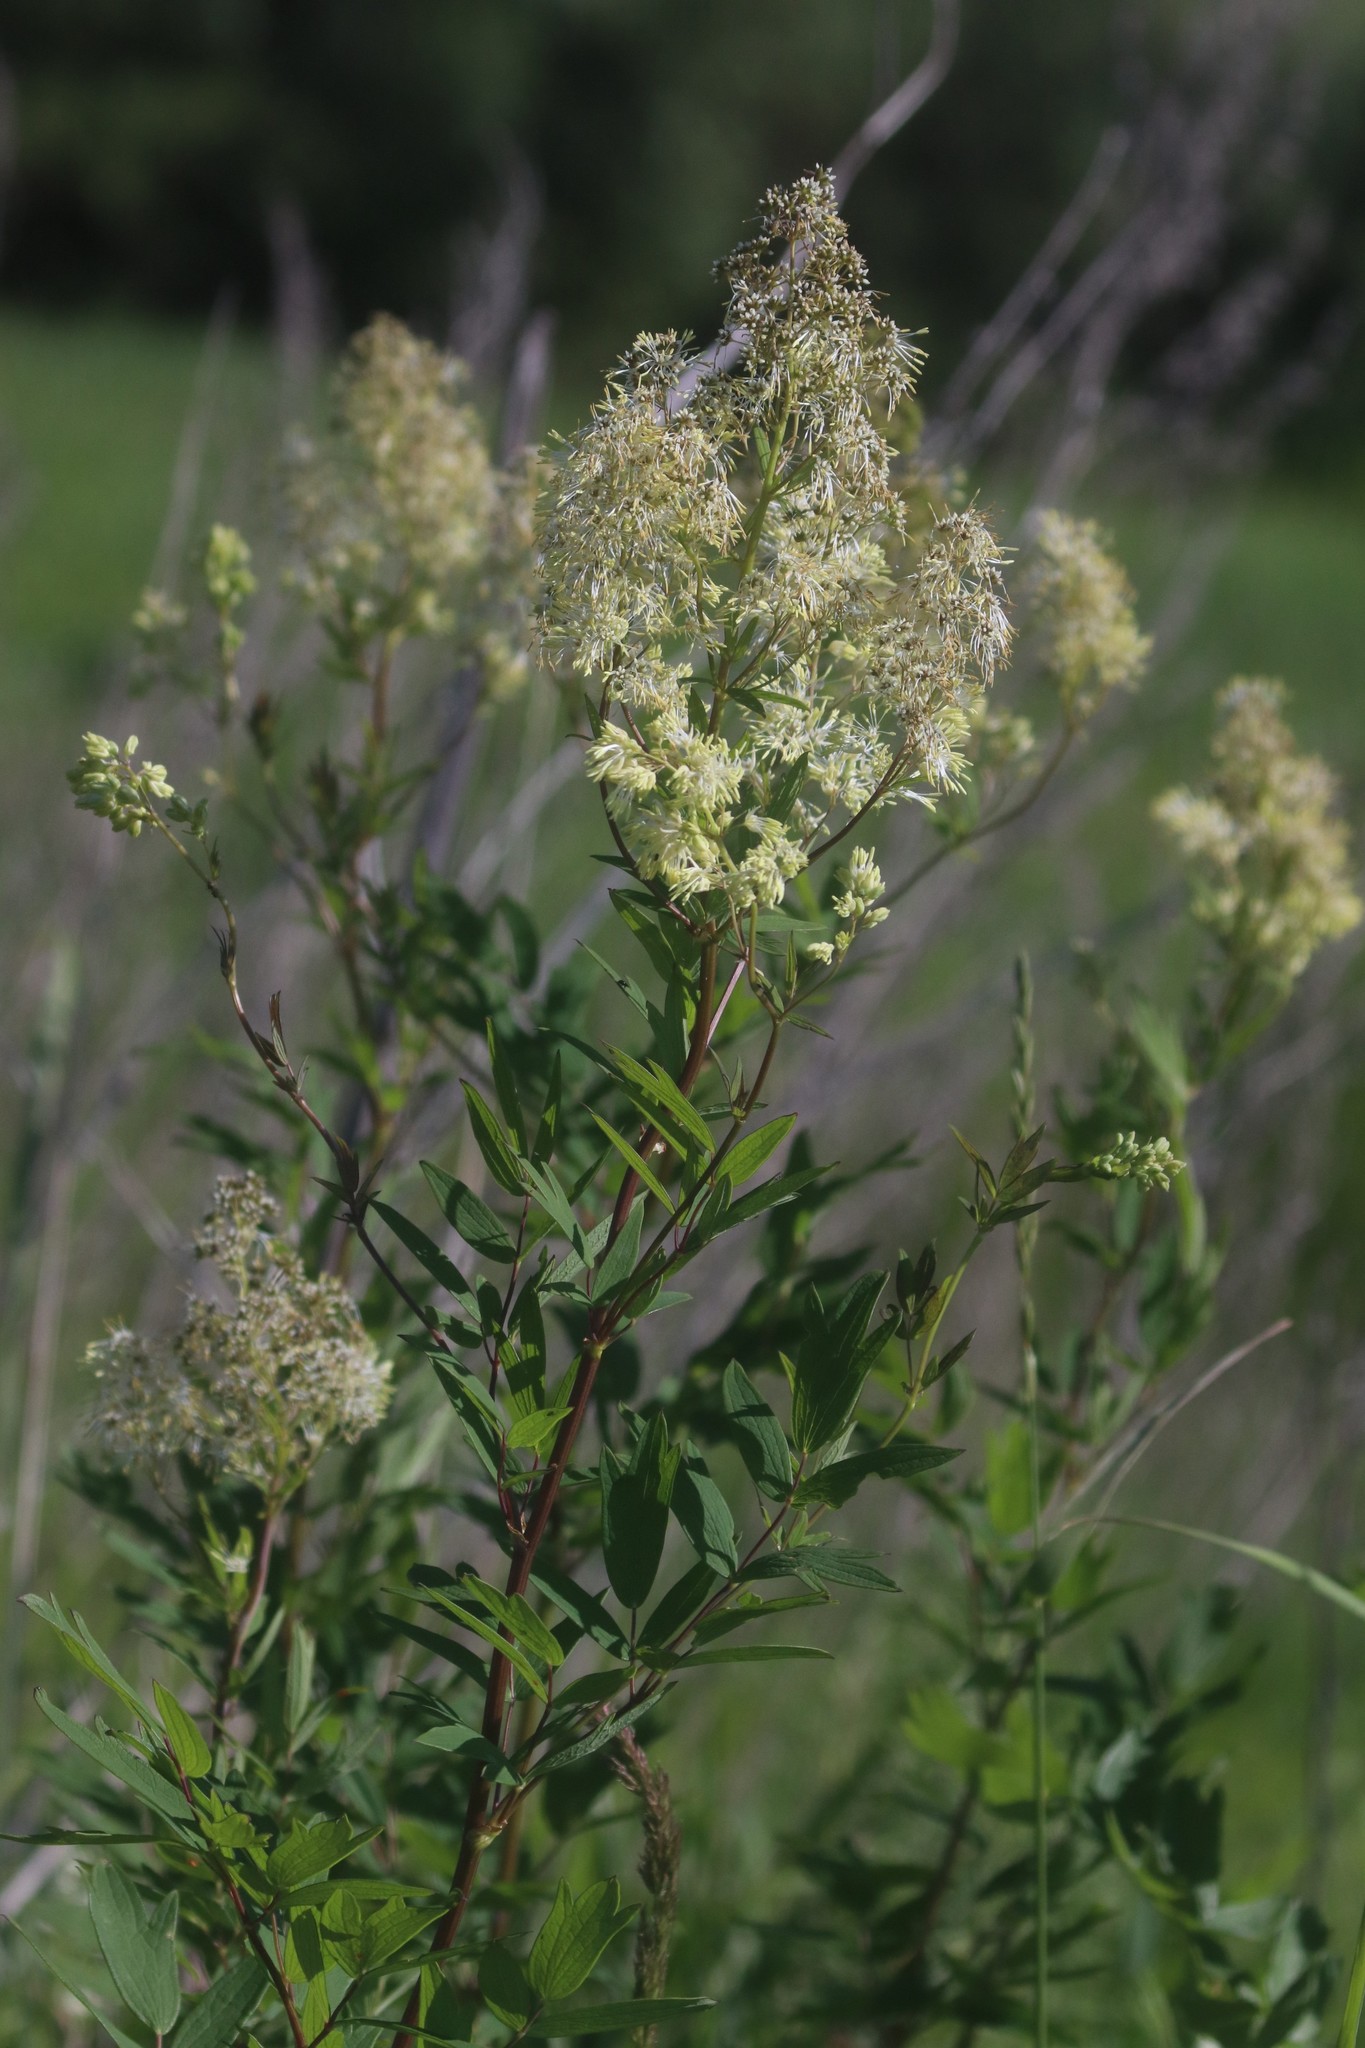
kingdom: Plantae
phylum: Tracheophyta
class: Magnoliopsida
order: Ranunculales
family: Ranunculaceae
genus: Thalictrum
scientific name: Thalictrum flavum
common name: Common meadow-rue
